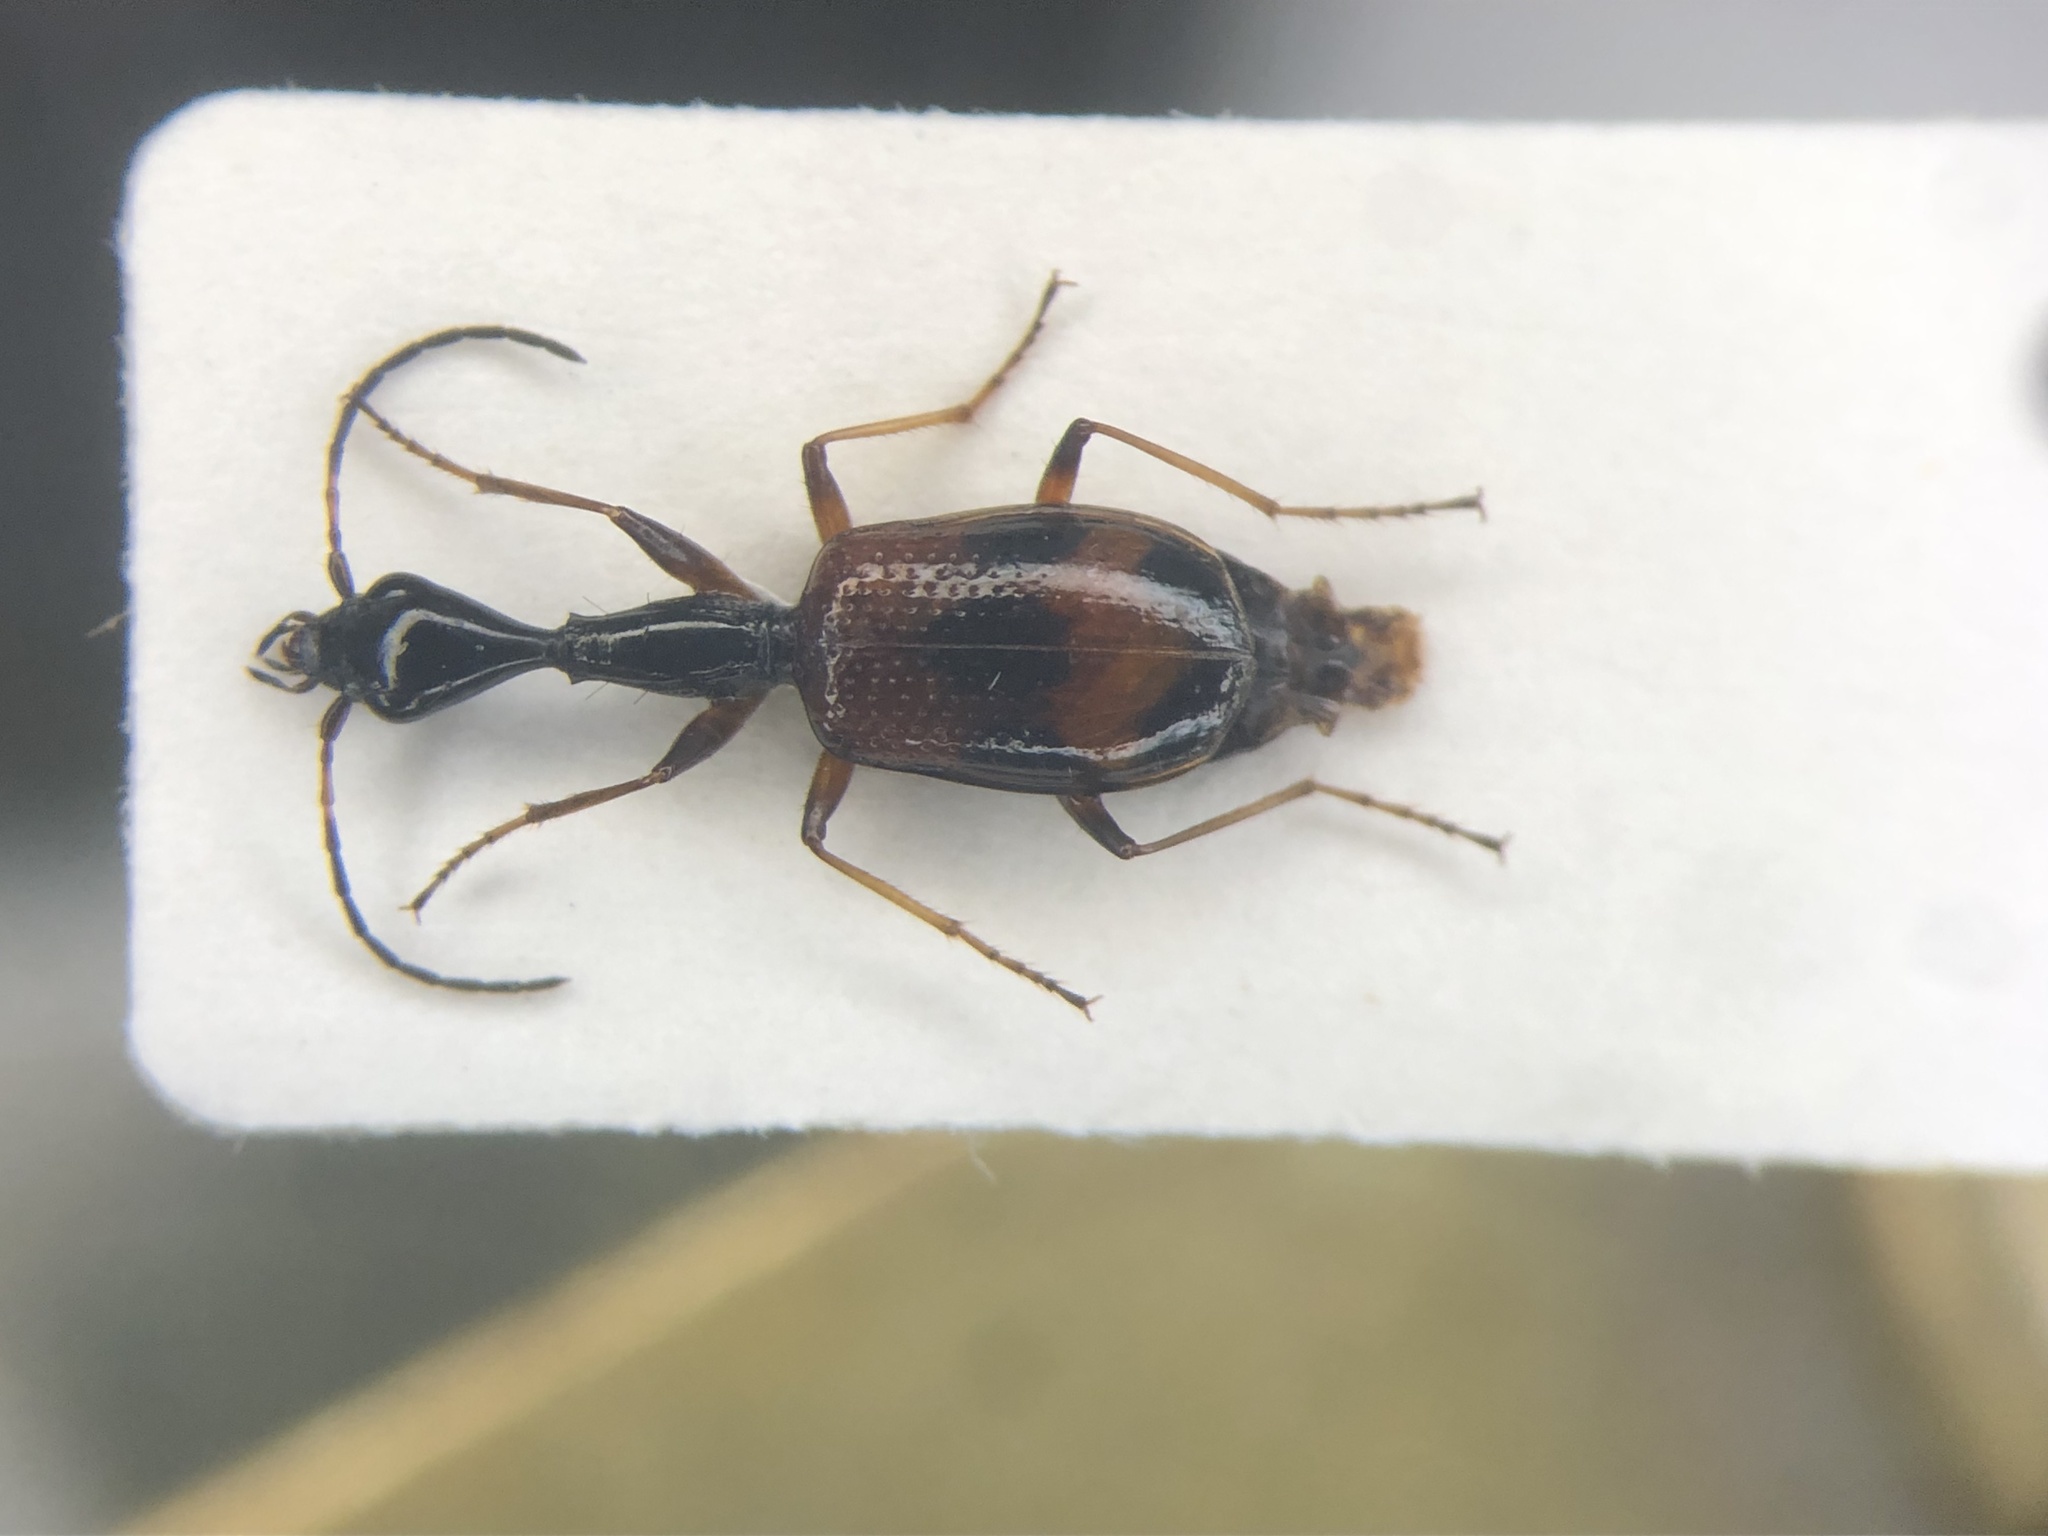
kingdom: Animalia
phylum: Arthropoda
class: Insecta
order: Coleoptera
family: Carabidae
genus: Colliuris
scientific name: Colliuris pensylvanica
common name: Long-necked ground beetle
